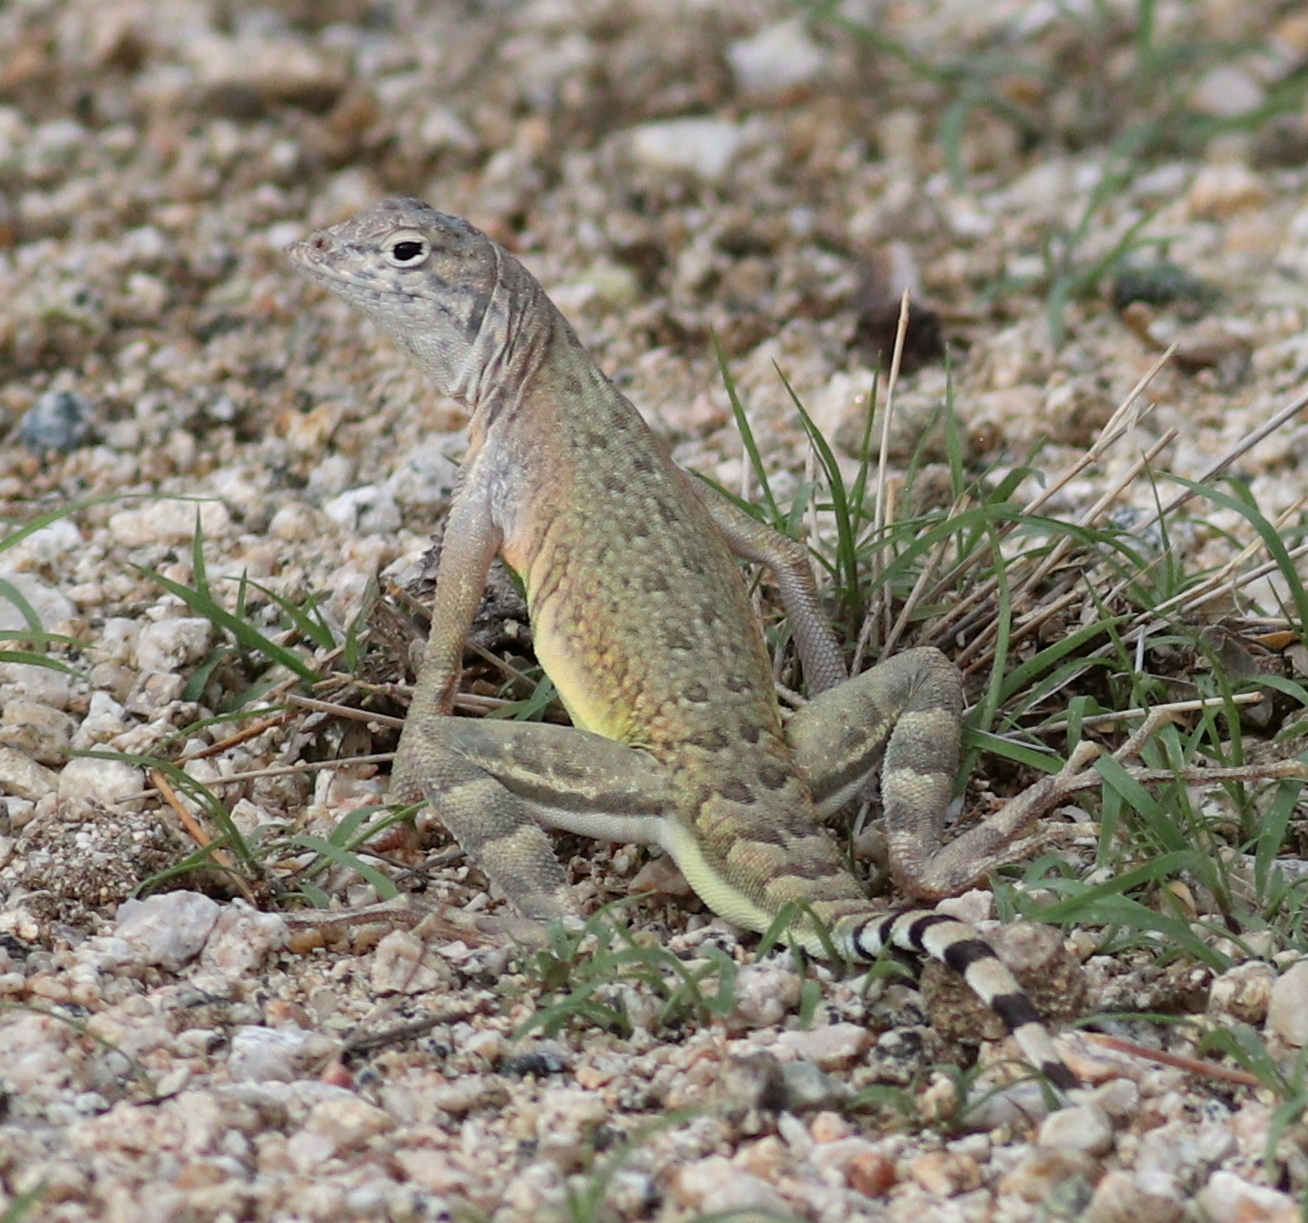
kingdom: Animalia
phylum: Chordata
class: Squamata
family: Phrynosomatidae
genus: Callisaurus
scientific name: Callisaurus draconoides
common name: Zebra-tailed lizard
